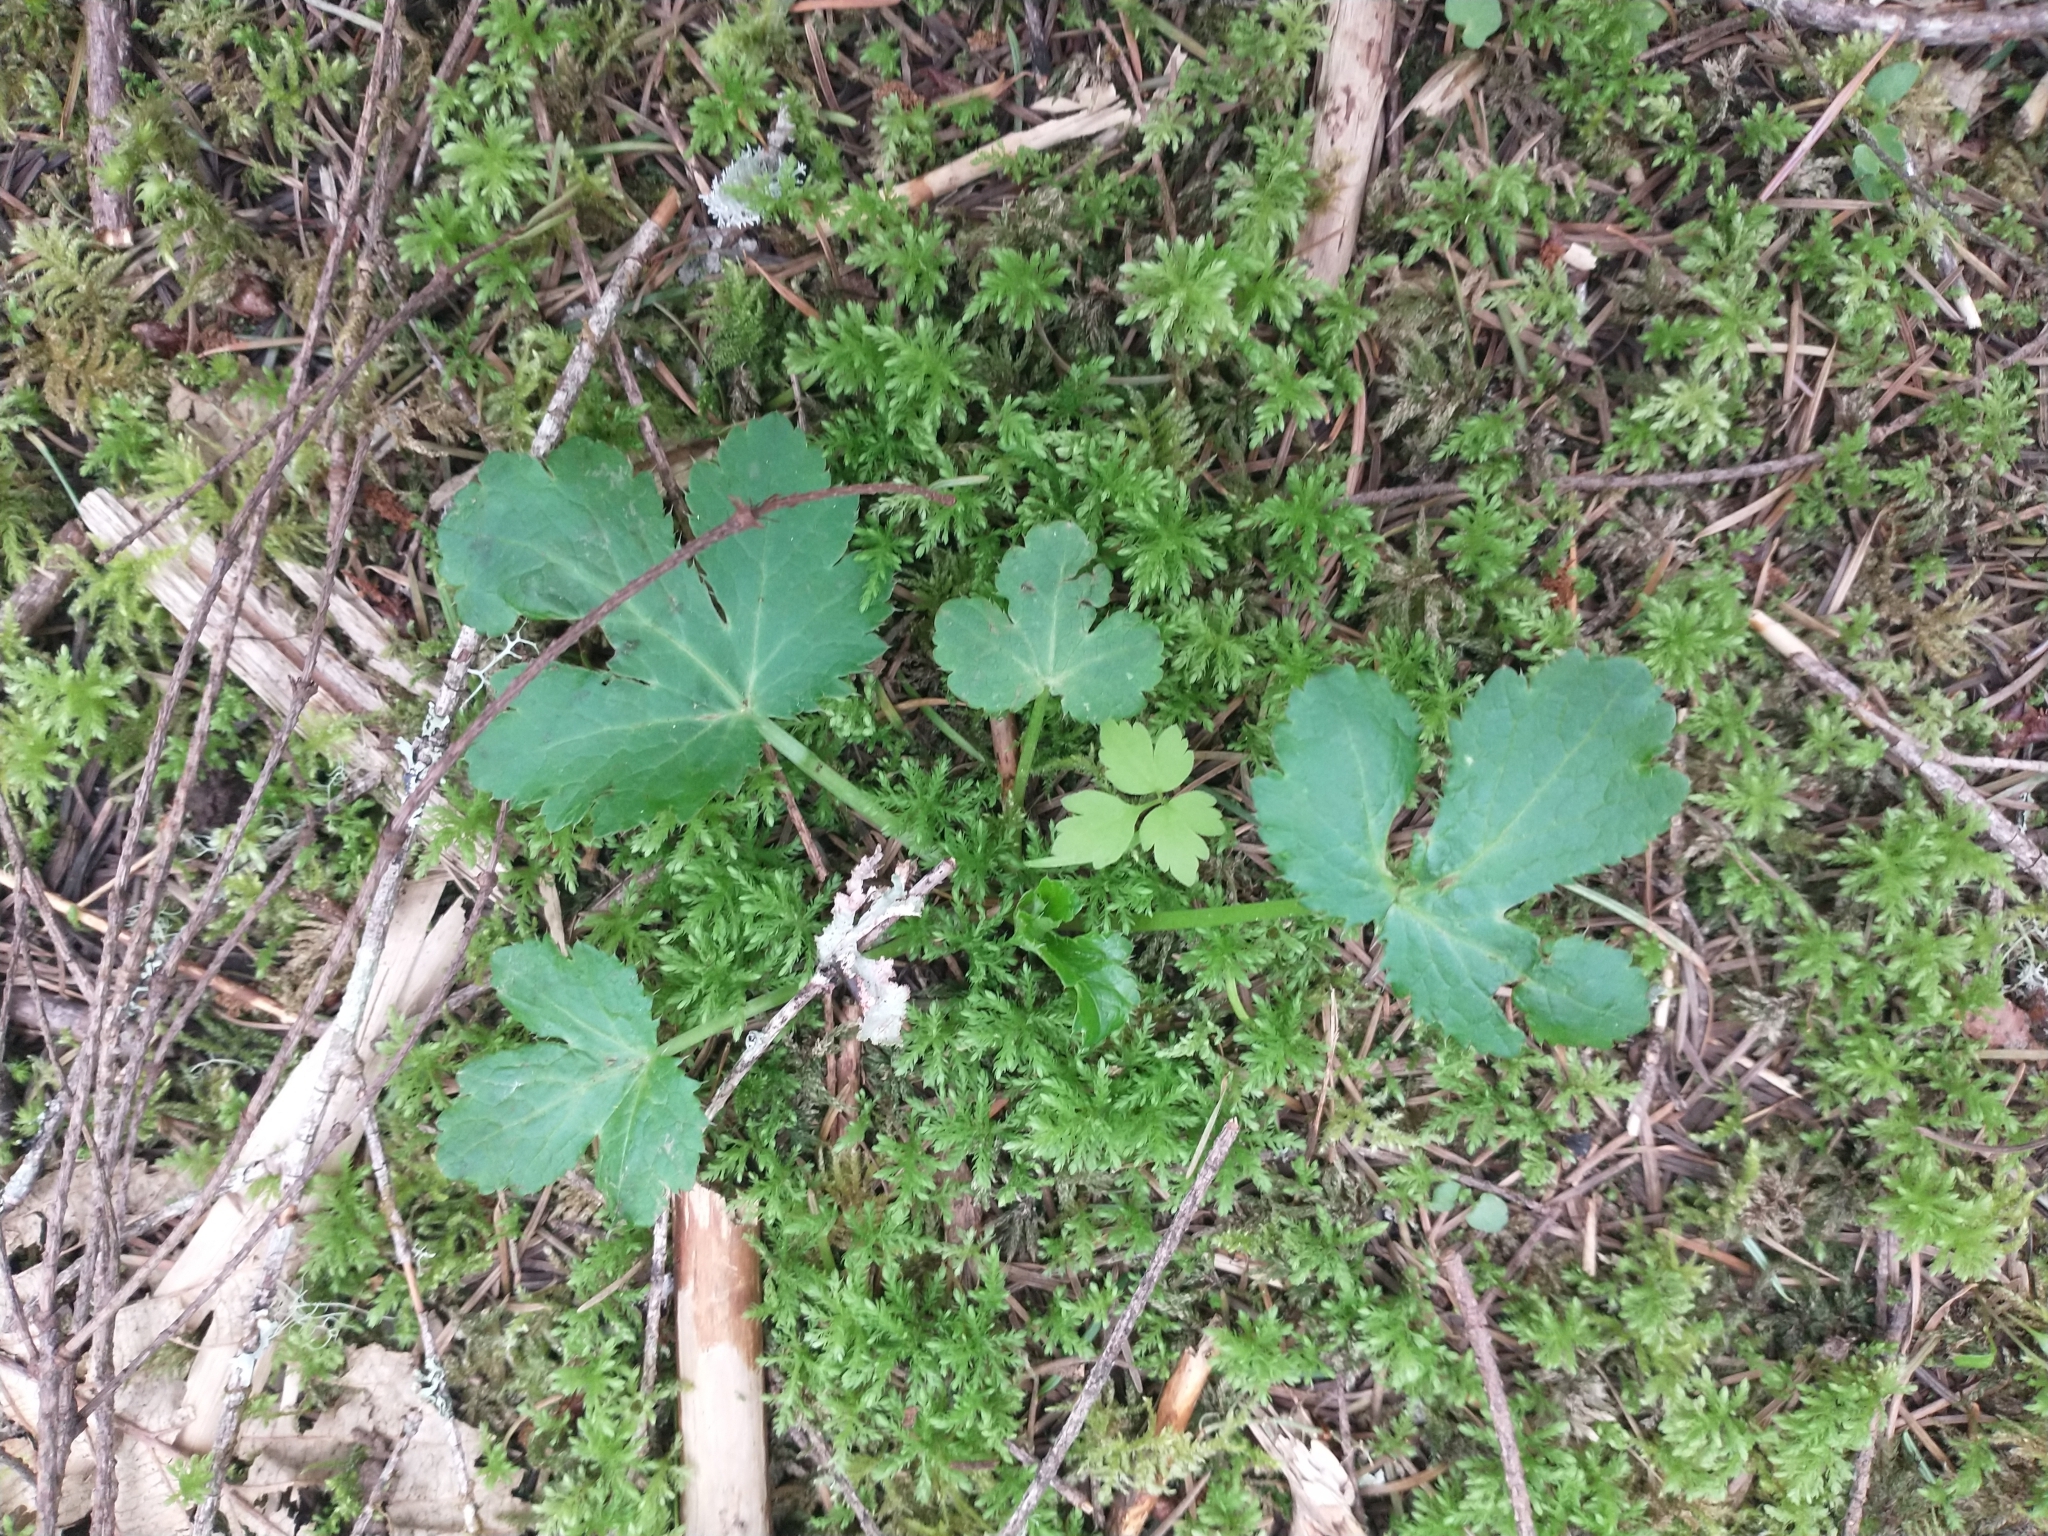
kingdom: Plantae
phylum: Tracheophyta
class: Magnoliopsida
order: Apiales
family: Apiaceae
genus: Sanicula
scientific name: Sanicula crassicaulis
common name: Western snakeroot
